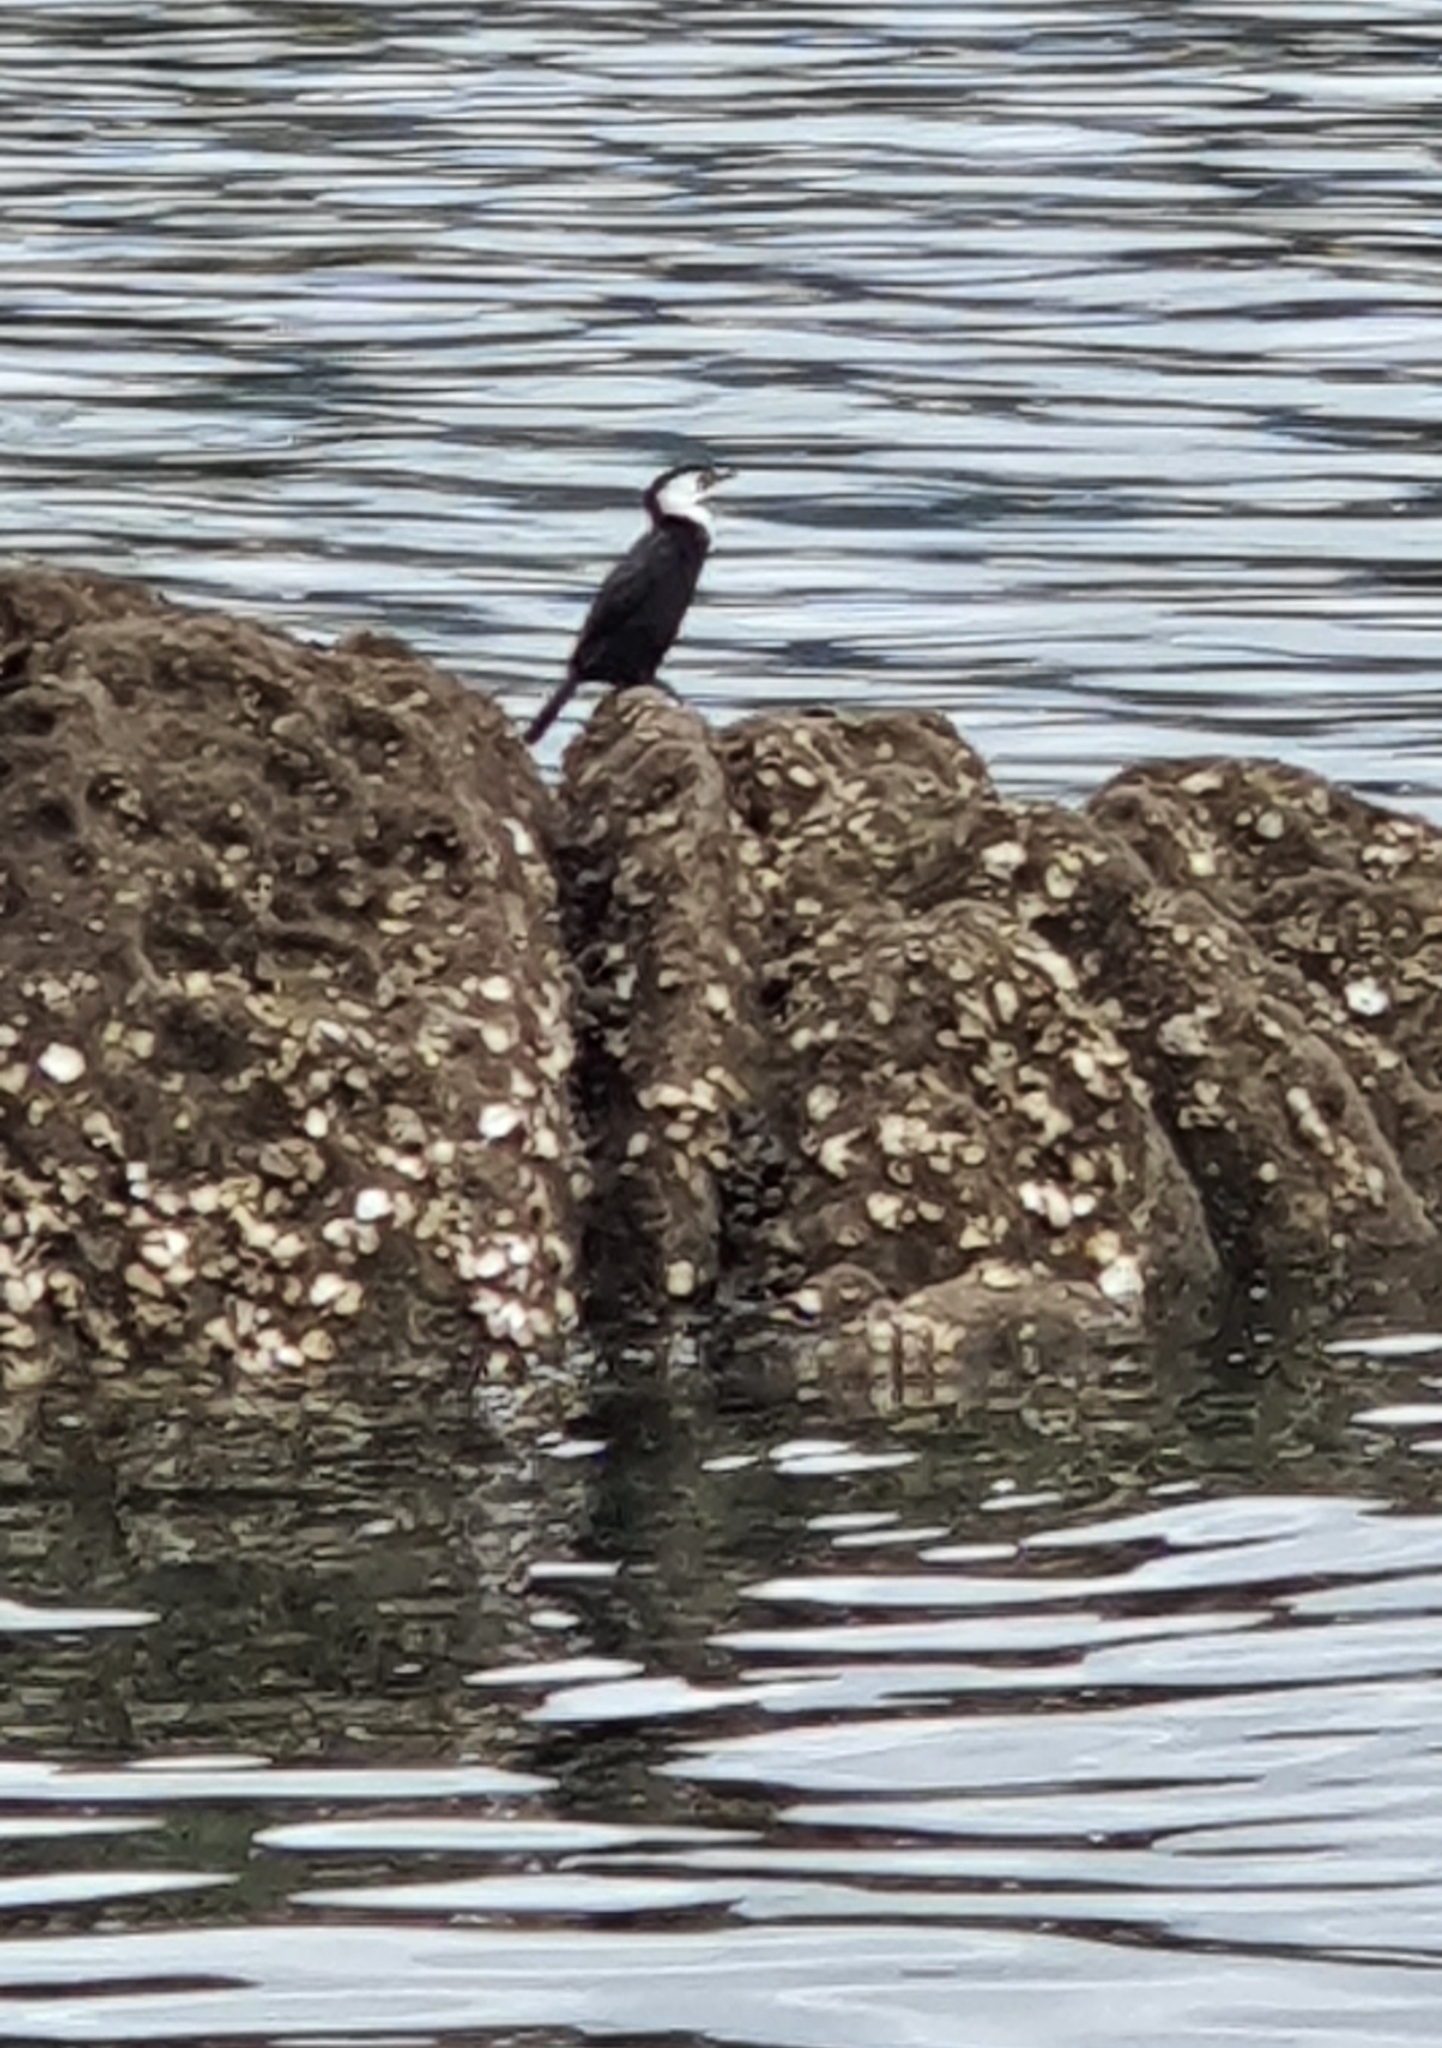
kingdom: Animalia
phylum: Chordata
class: Aves
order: Suliformes
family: Phalacrocoracidae
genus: Microcarbo
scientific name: Microcarbo melanoleucos
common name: Little pied cormorant
